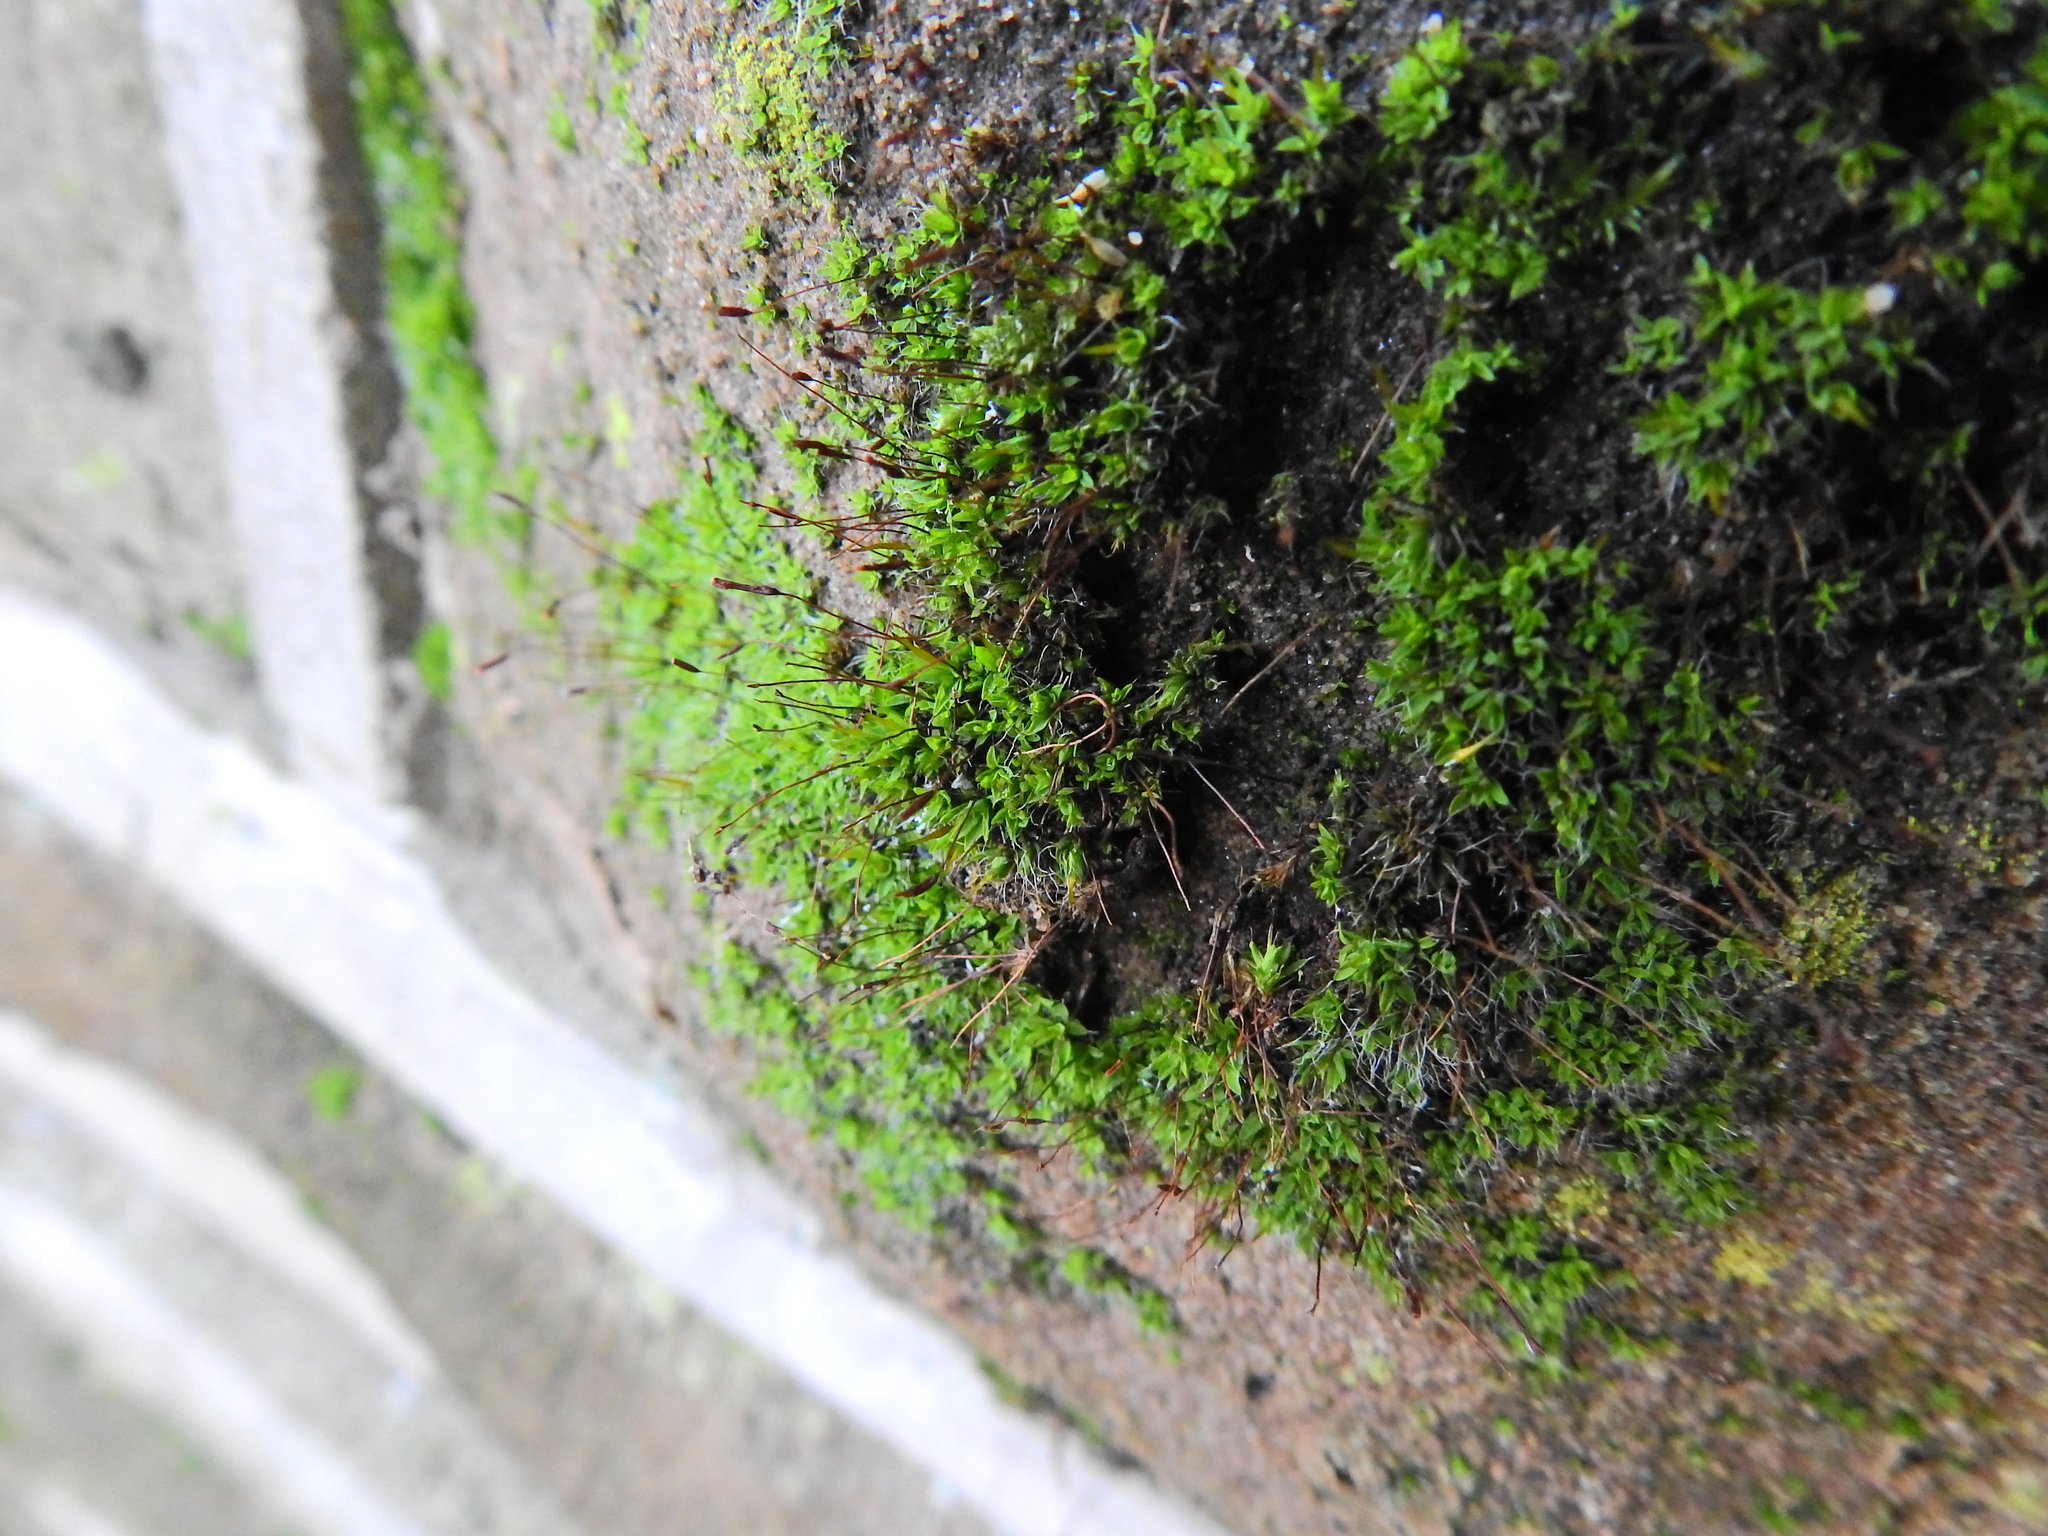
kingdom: Plantae
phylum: Bryophyta
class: Bryopsida
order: Pottiales
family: Pottiaceae
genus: Tortula
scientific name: Tortula muralis
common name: Wall screw-moss
